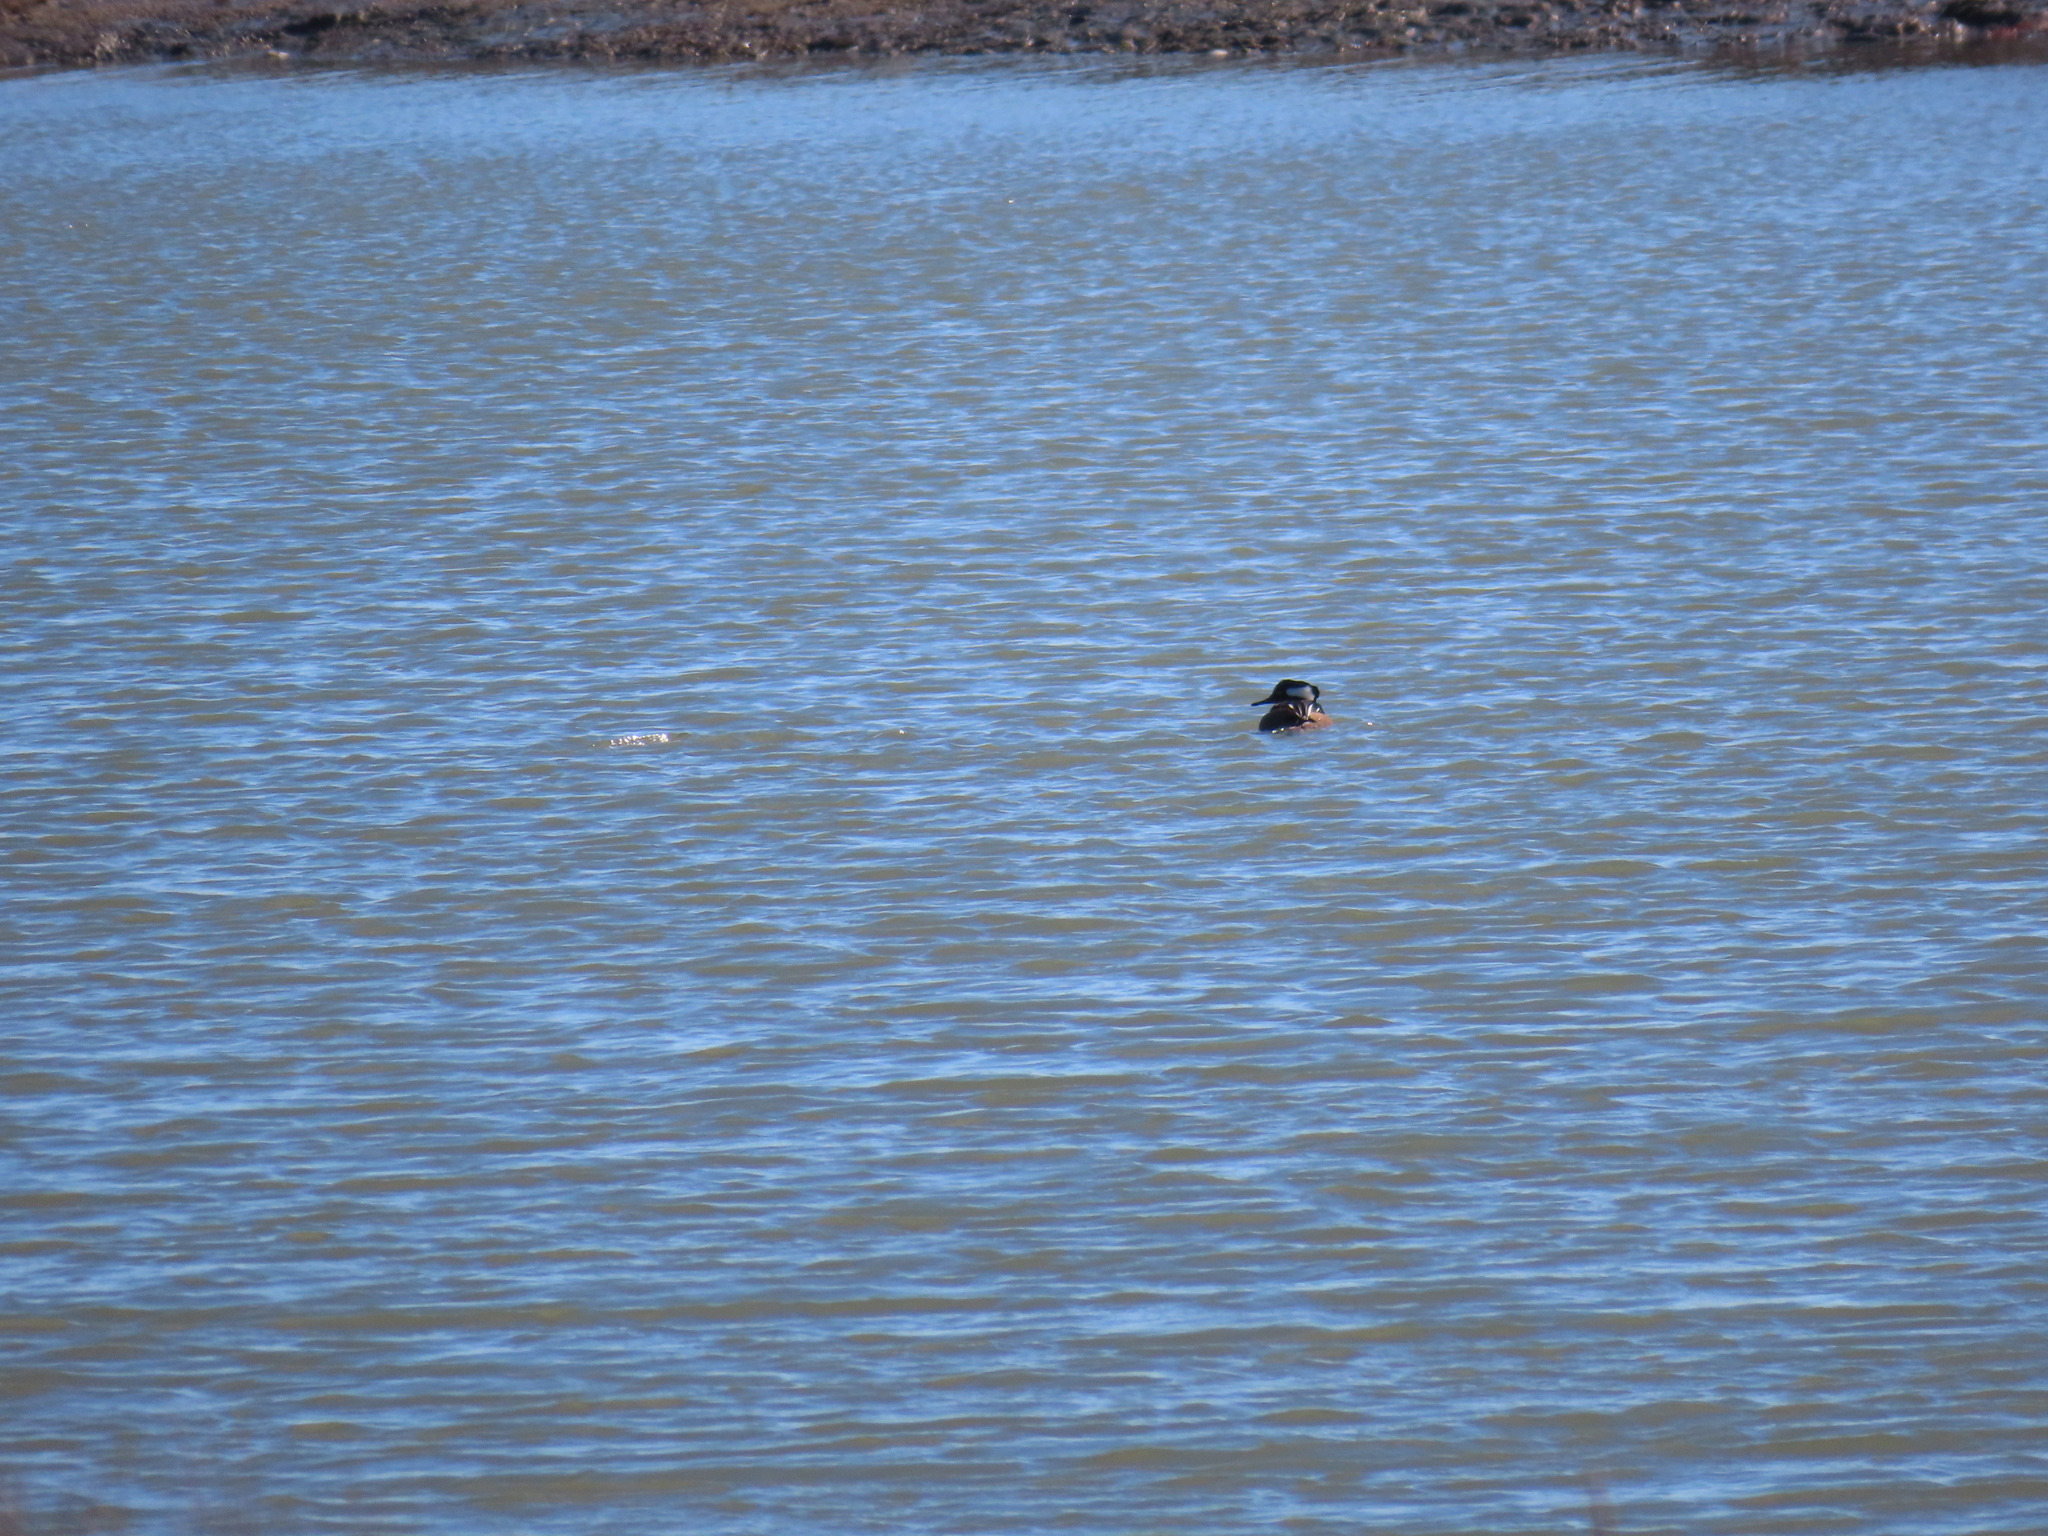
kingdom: Animalia
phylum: Chordata
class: Aves
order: Anseriformes
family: Anatidae
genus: Lophodytes
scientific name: Lophodytes cucullatus
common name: Hooded merganser
